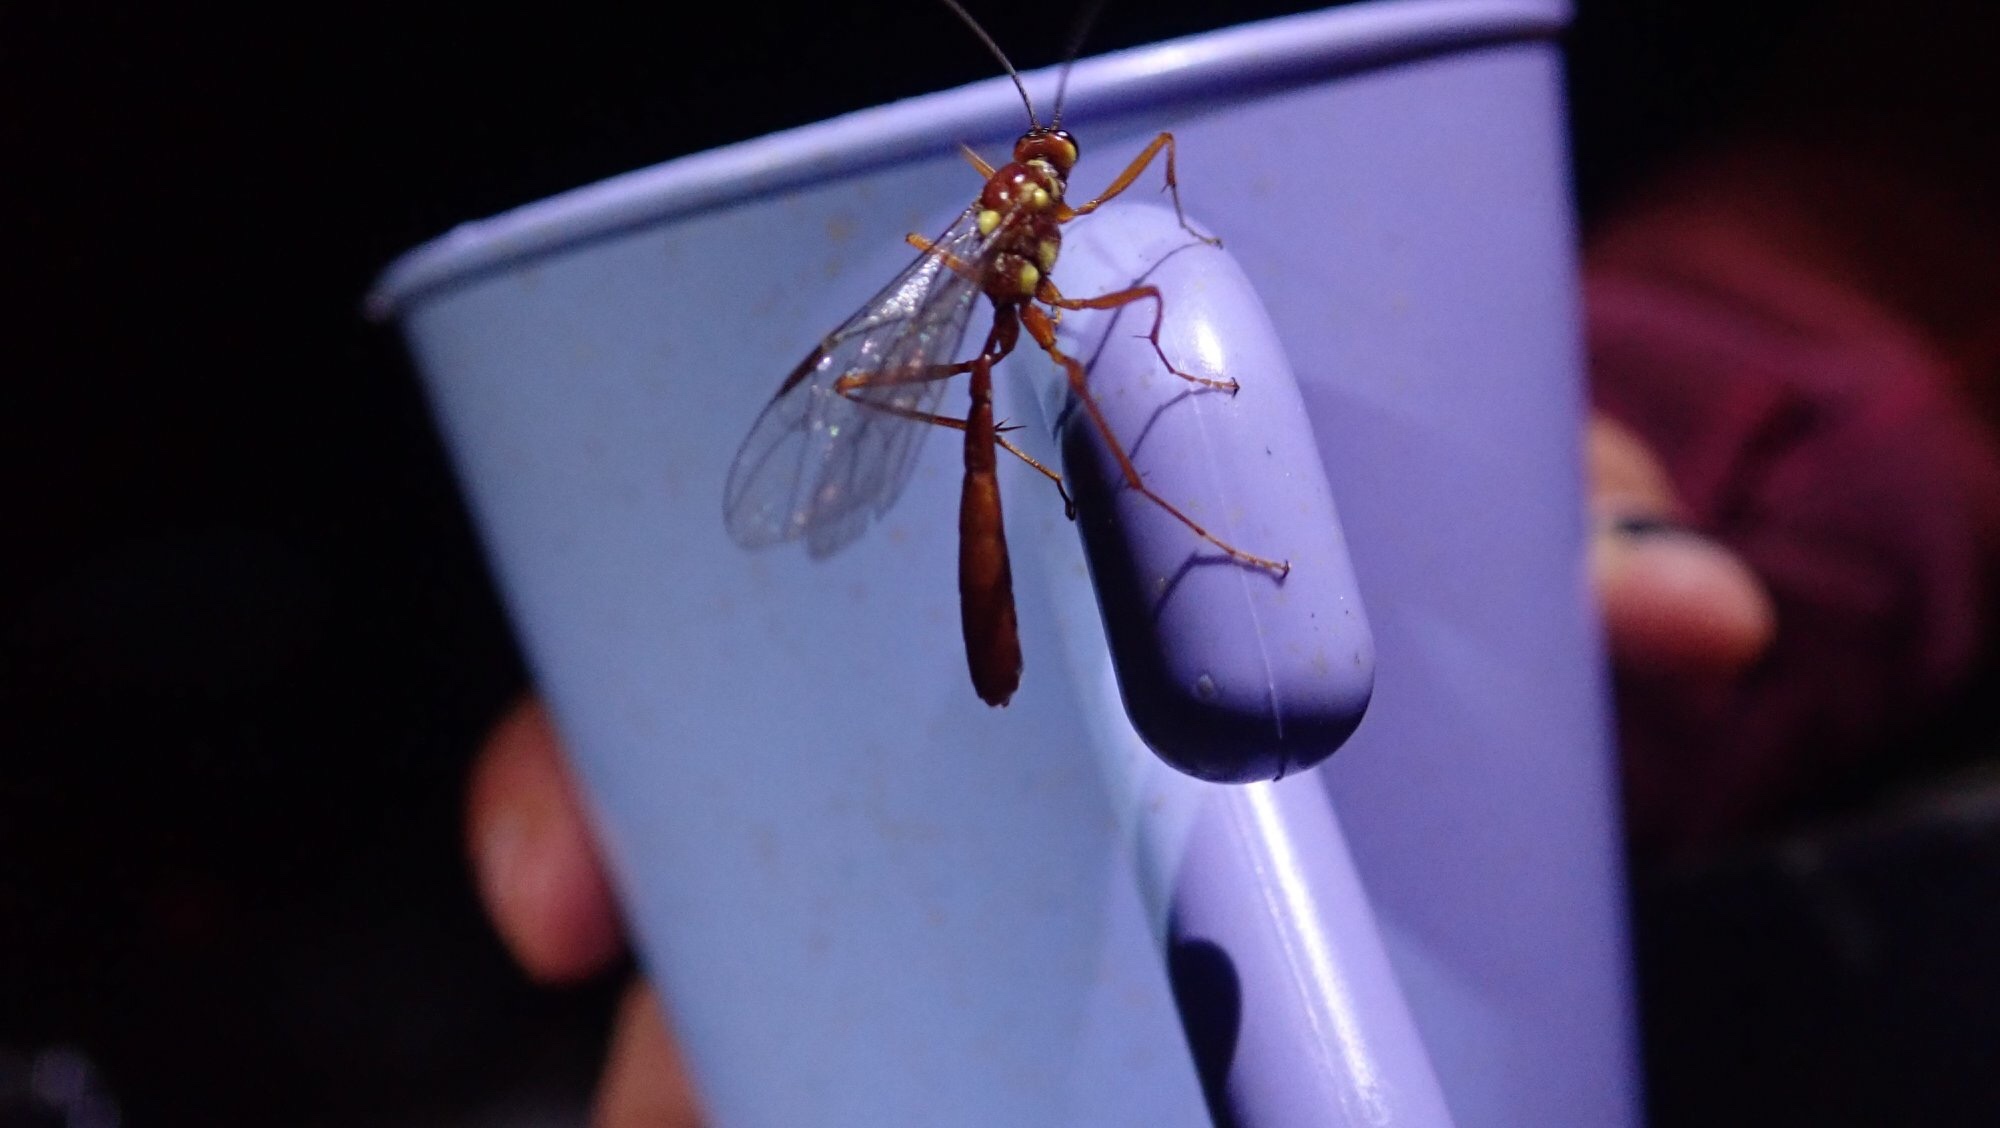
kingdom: Animalia
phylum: Arthropoda
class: Insecta
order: Hymenoptera
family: Ichneumonidae
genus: Ophion
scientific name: Ophion peregrinus
